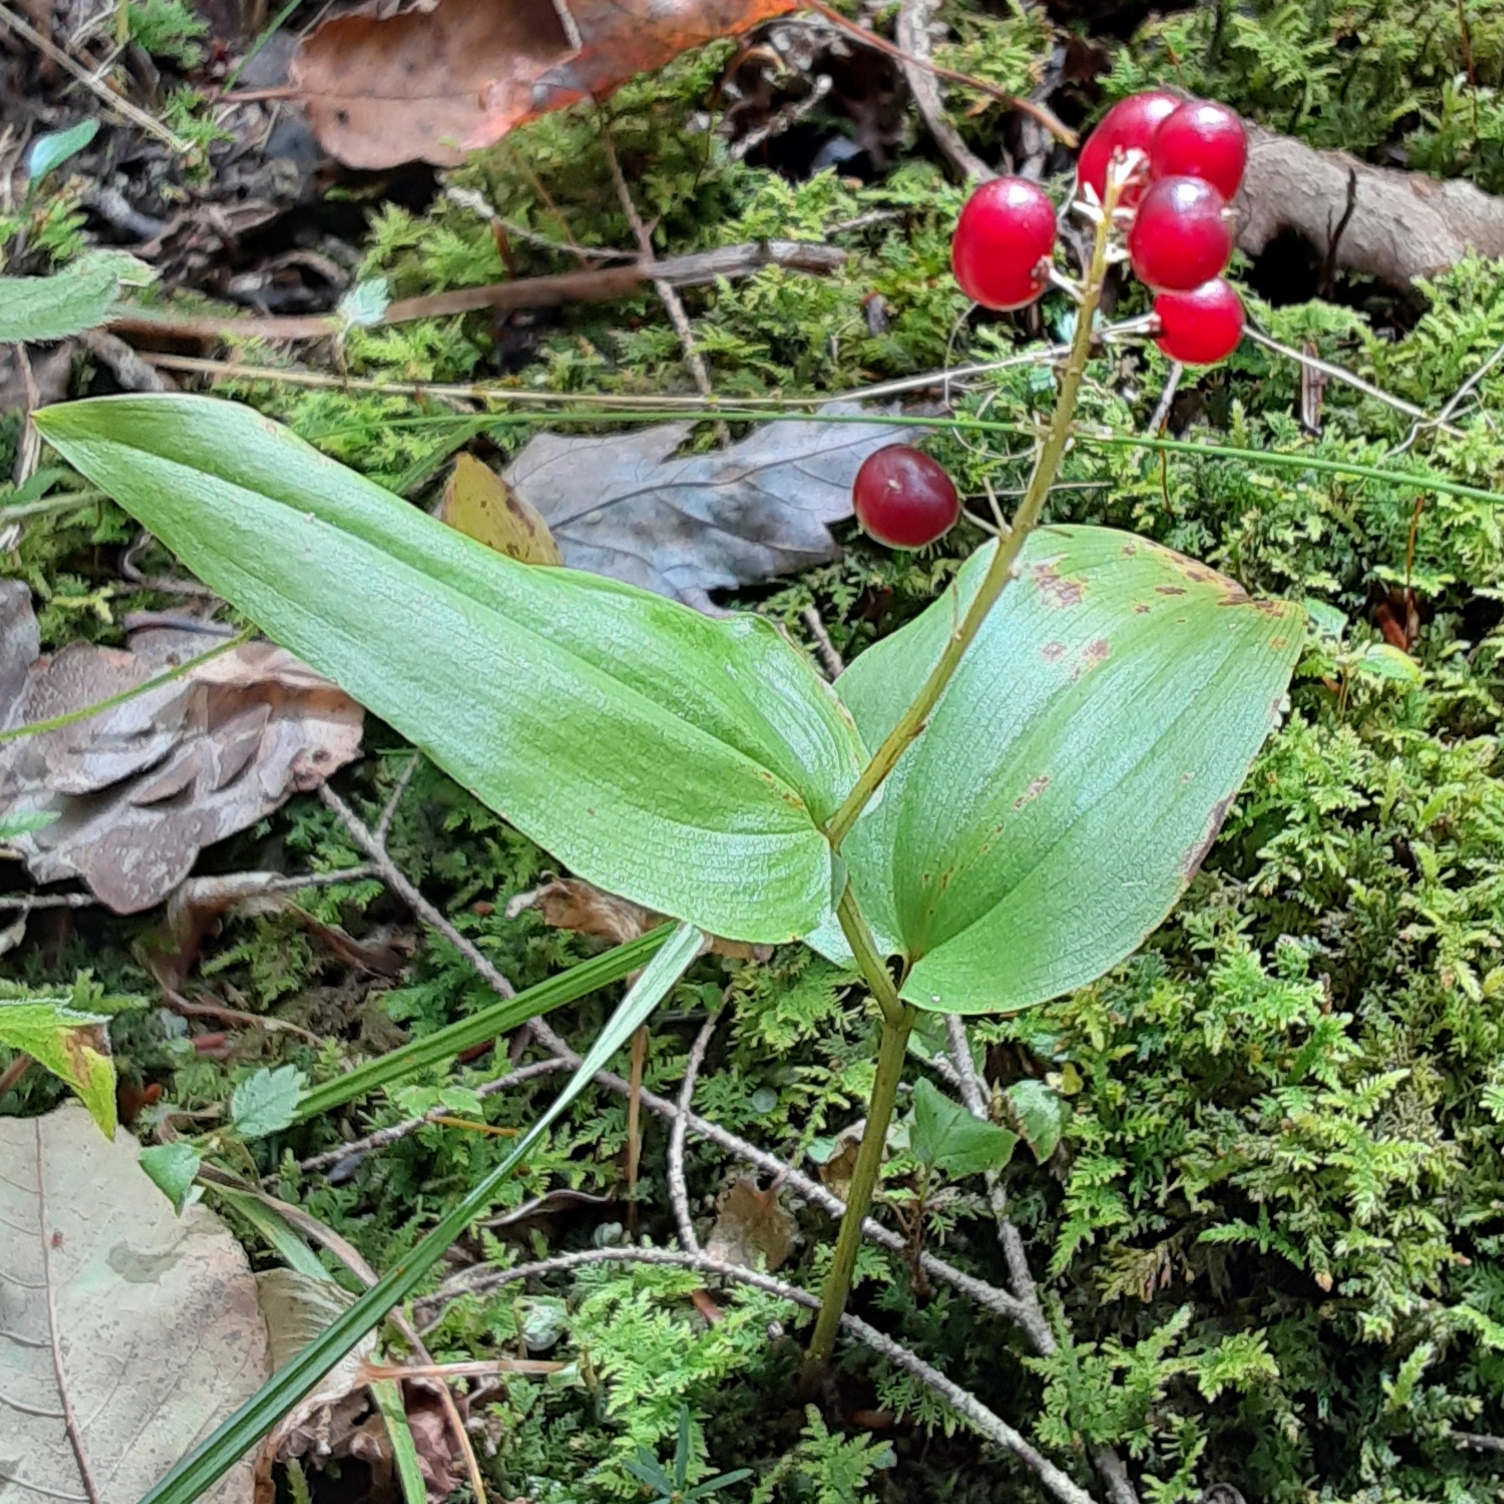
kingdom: Plantae
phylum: Tracheophyta
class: Liliopsida
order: Asparagales
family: Asparagaceae
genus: Maianthemum
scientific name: Maianthemum canadense
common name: False lily-of-the-valley
